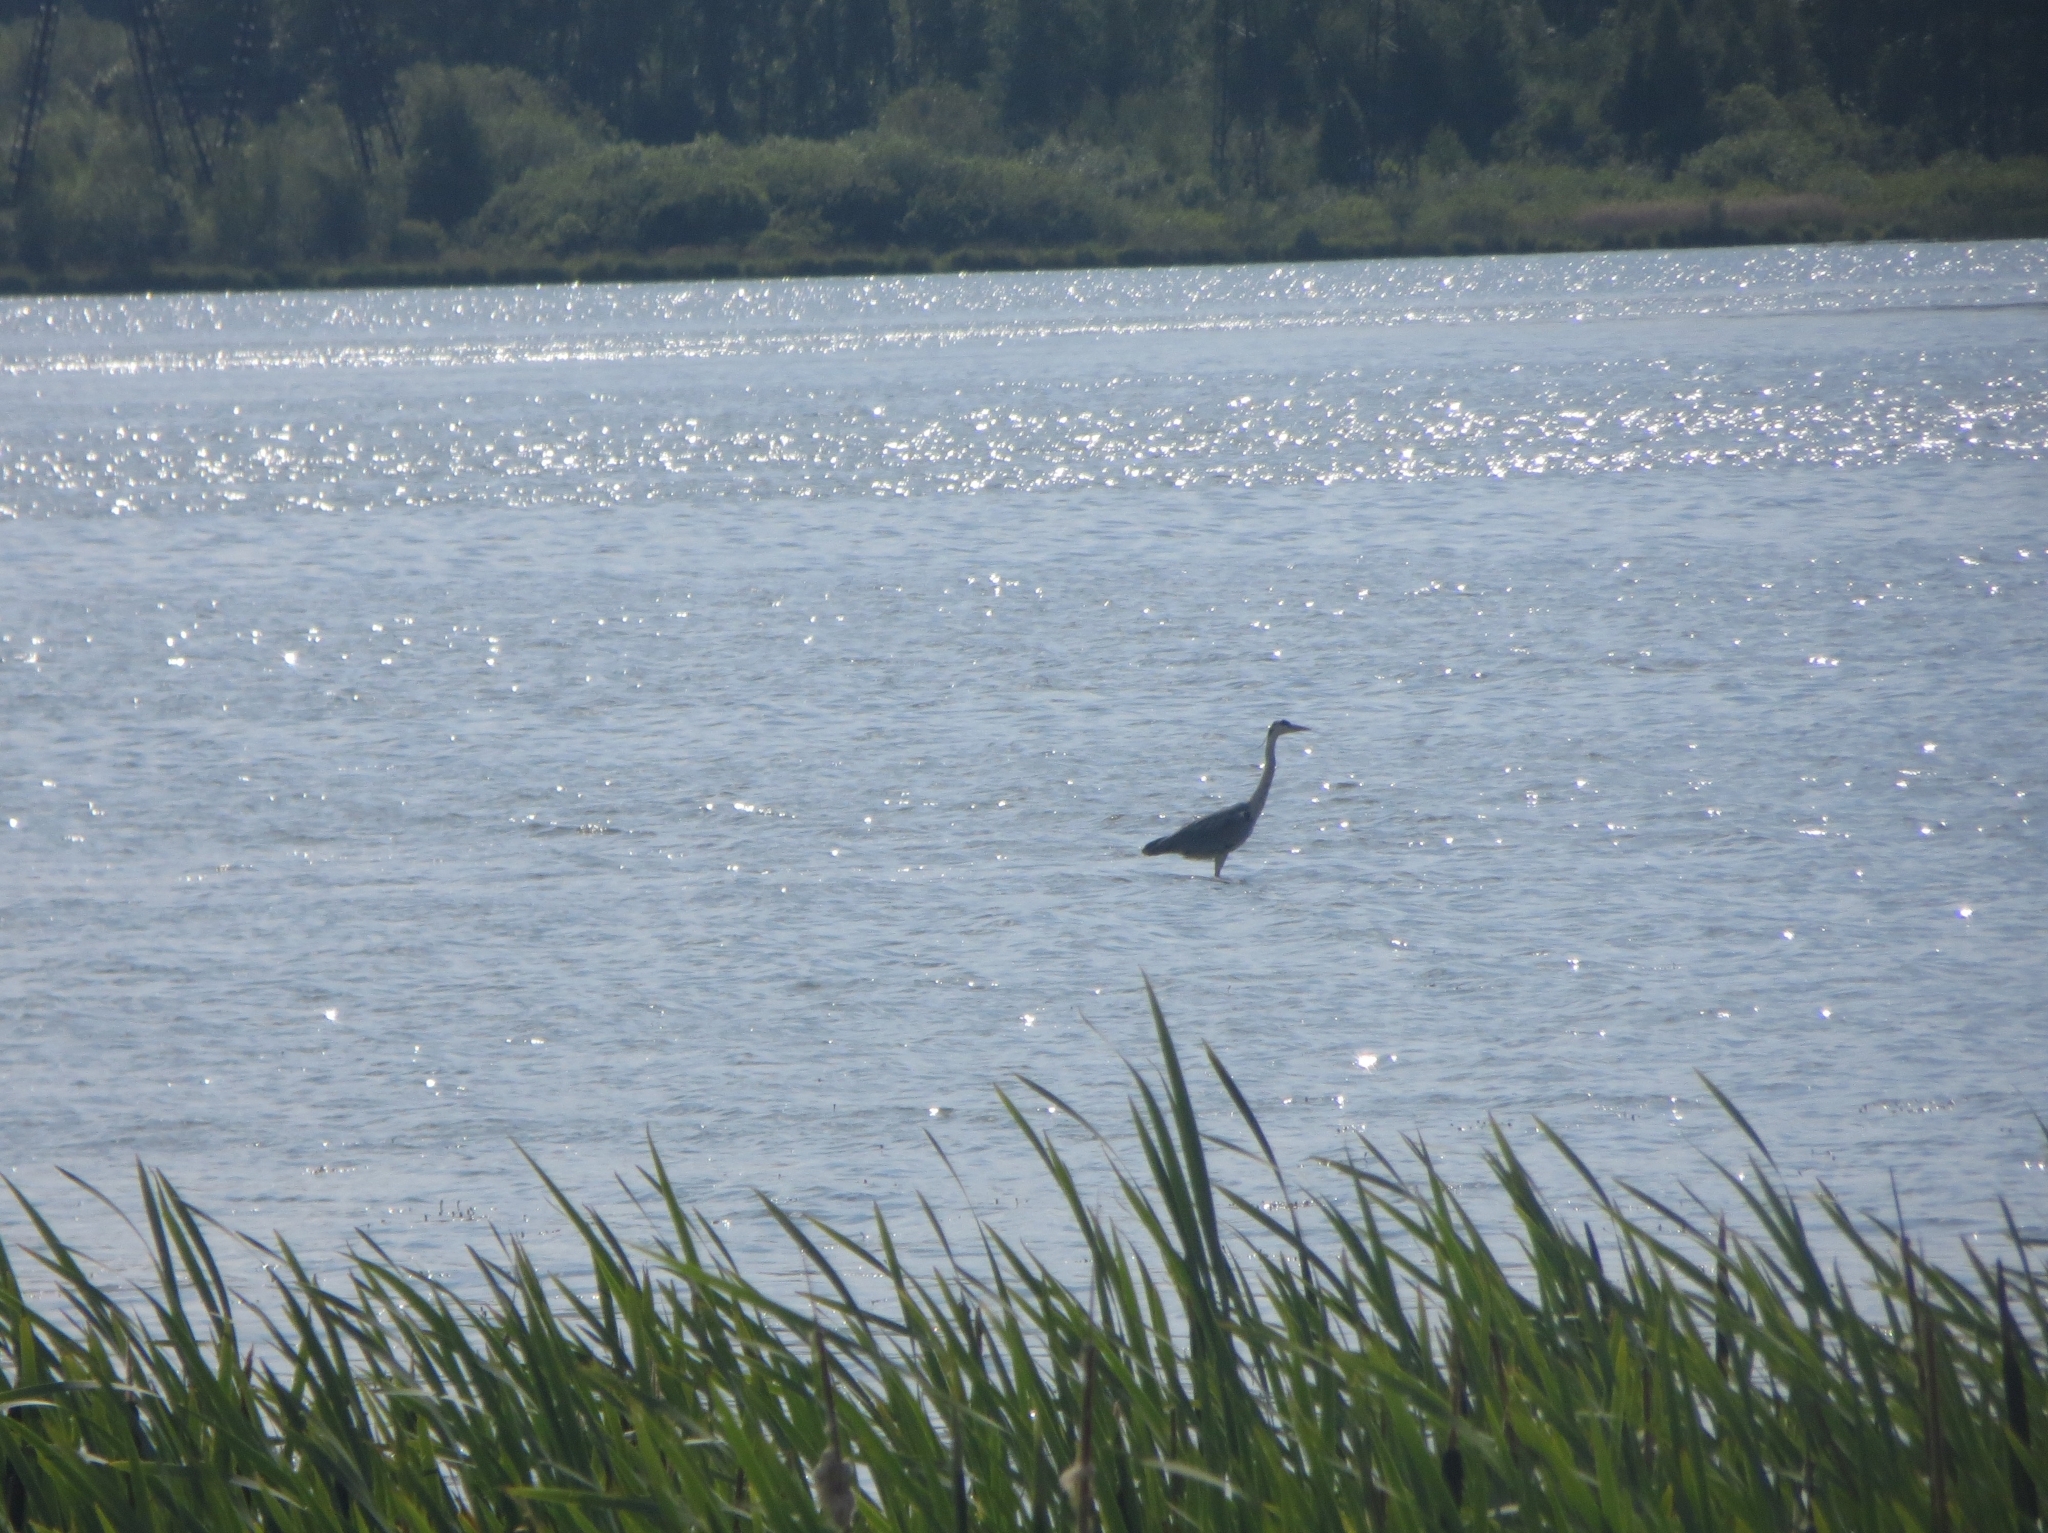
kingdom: Animalia
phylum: Chordata
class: Aves
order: Pelecaniformes
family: Ardeidae
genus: Ardea
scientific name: Ardea cinerea
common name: Grey heron
